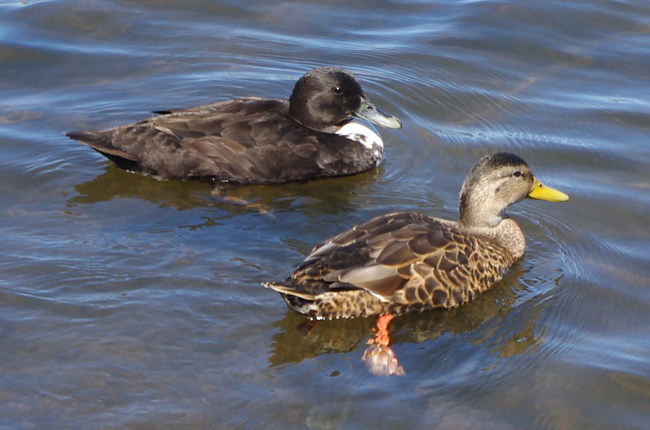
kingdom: Animalia
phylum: Chordata
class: Aves
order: Anseriformes
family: Anatidae
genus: Anas
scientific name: Anas platyrhynchos
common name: Mallard
